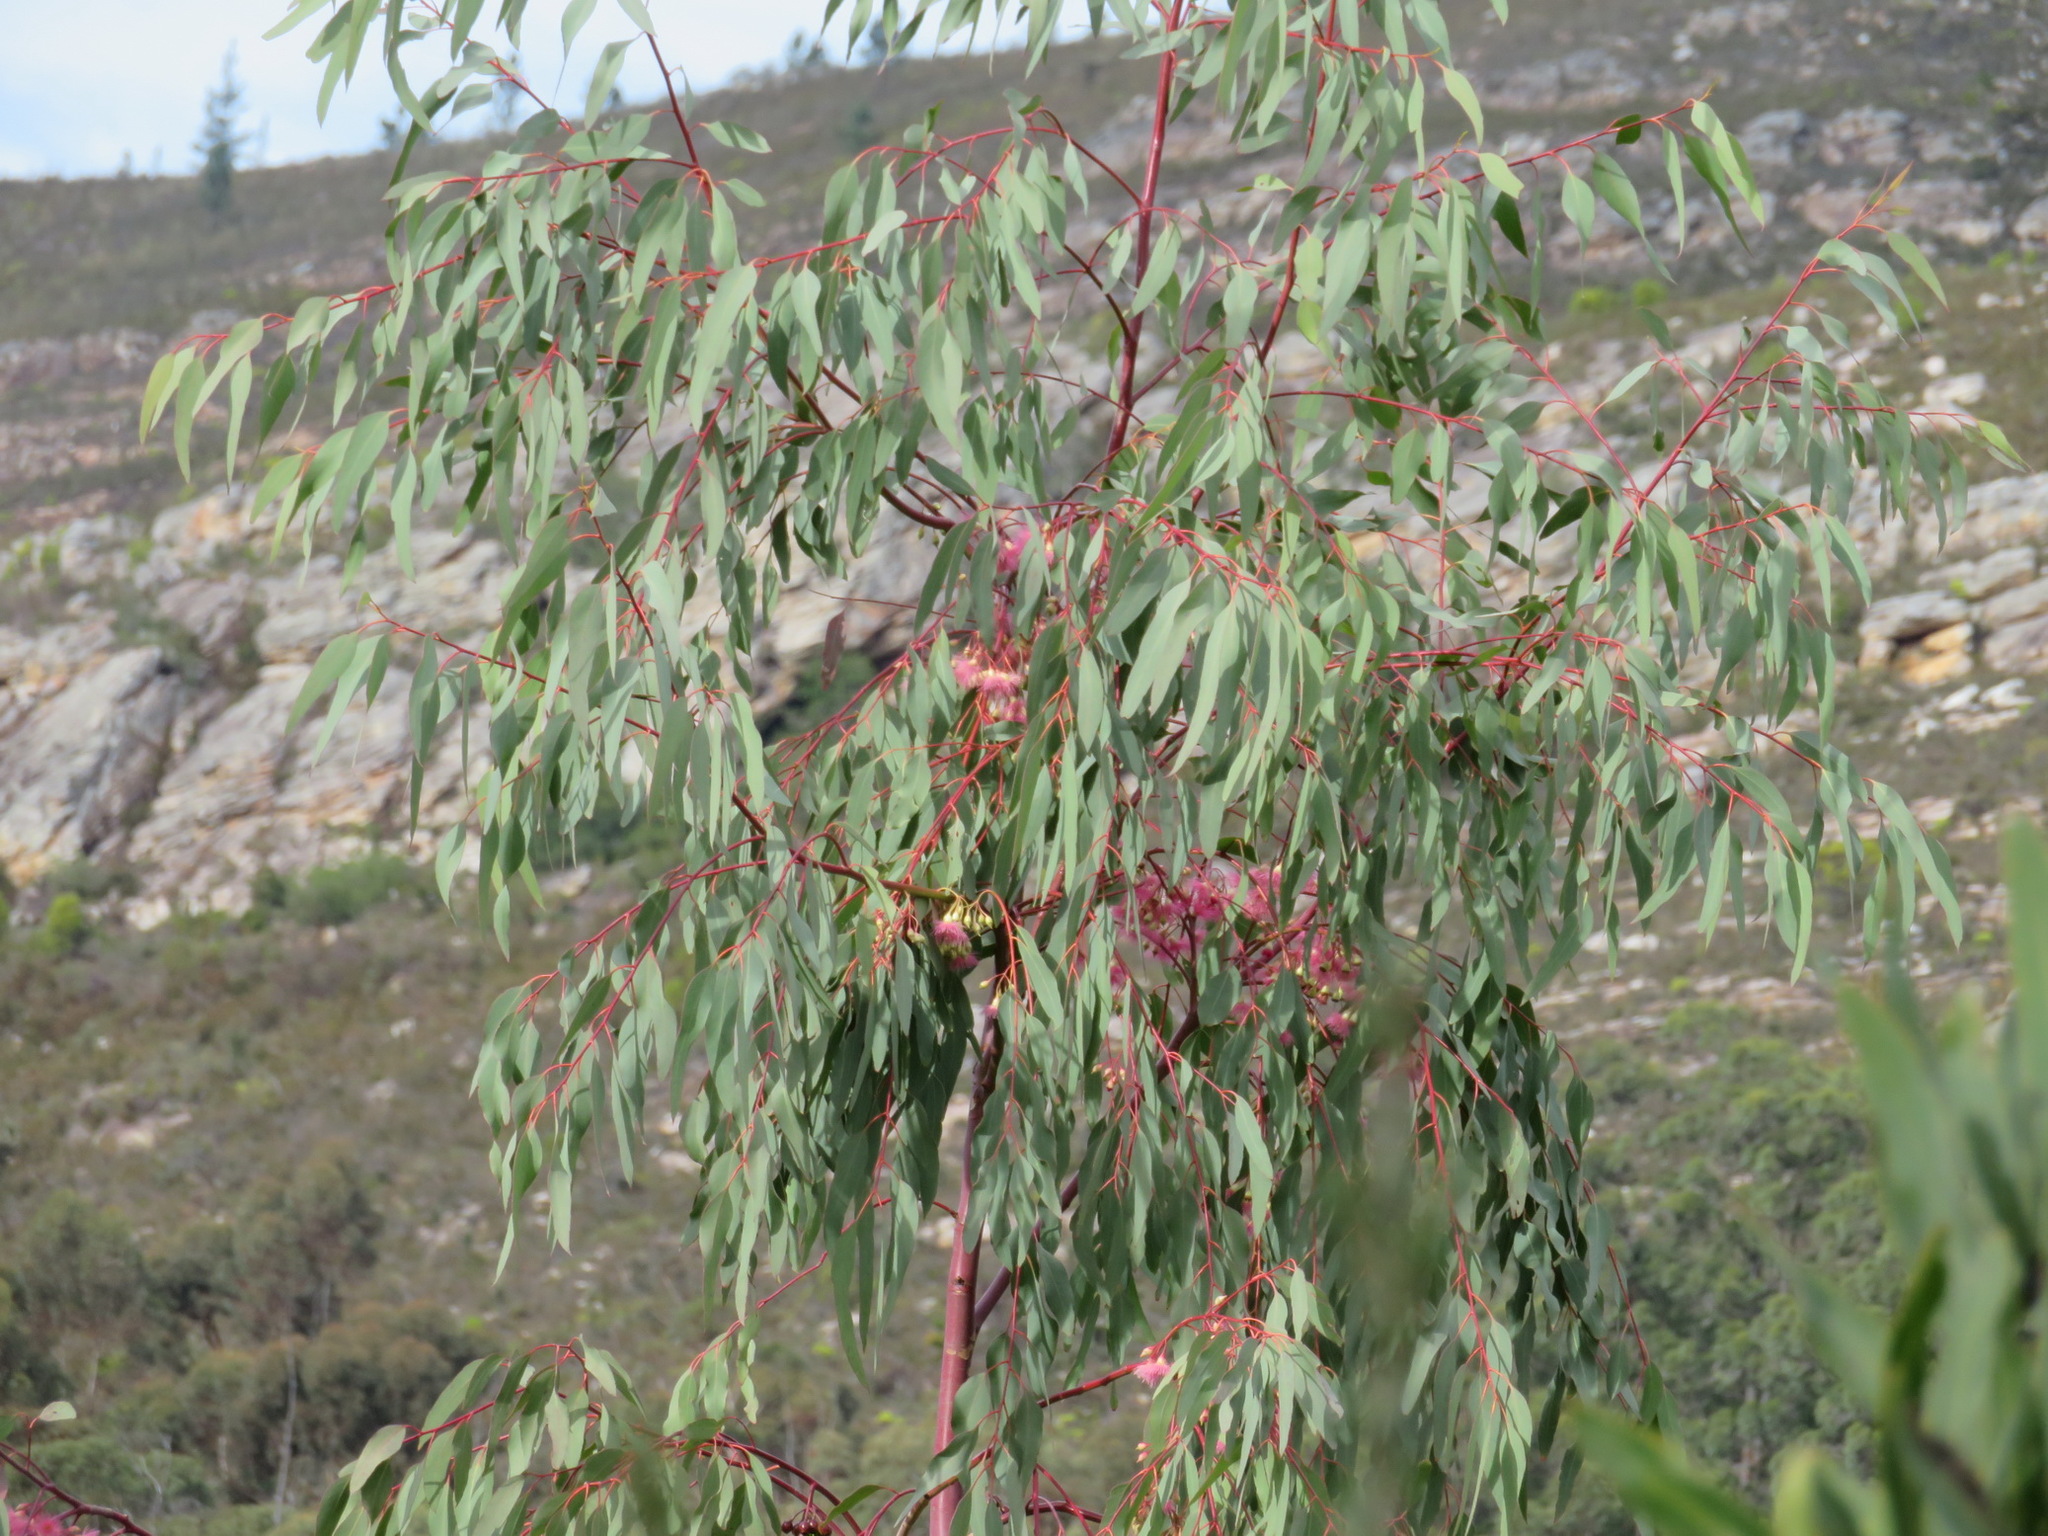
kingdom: Plantae
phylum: Tracheophyta
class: Magnoliopsida
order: Myrtales
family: Myrtaceae
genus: Eucalyptus
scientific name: Eucalyptus sideroxylon
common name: Red ironbark
